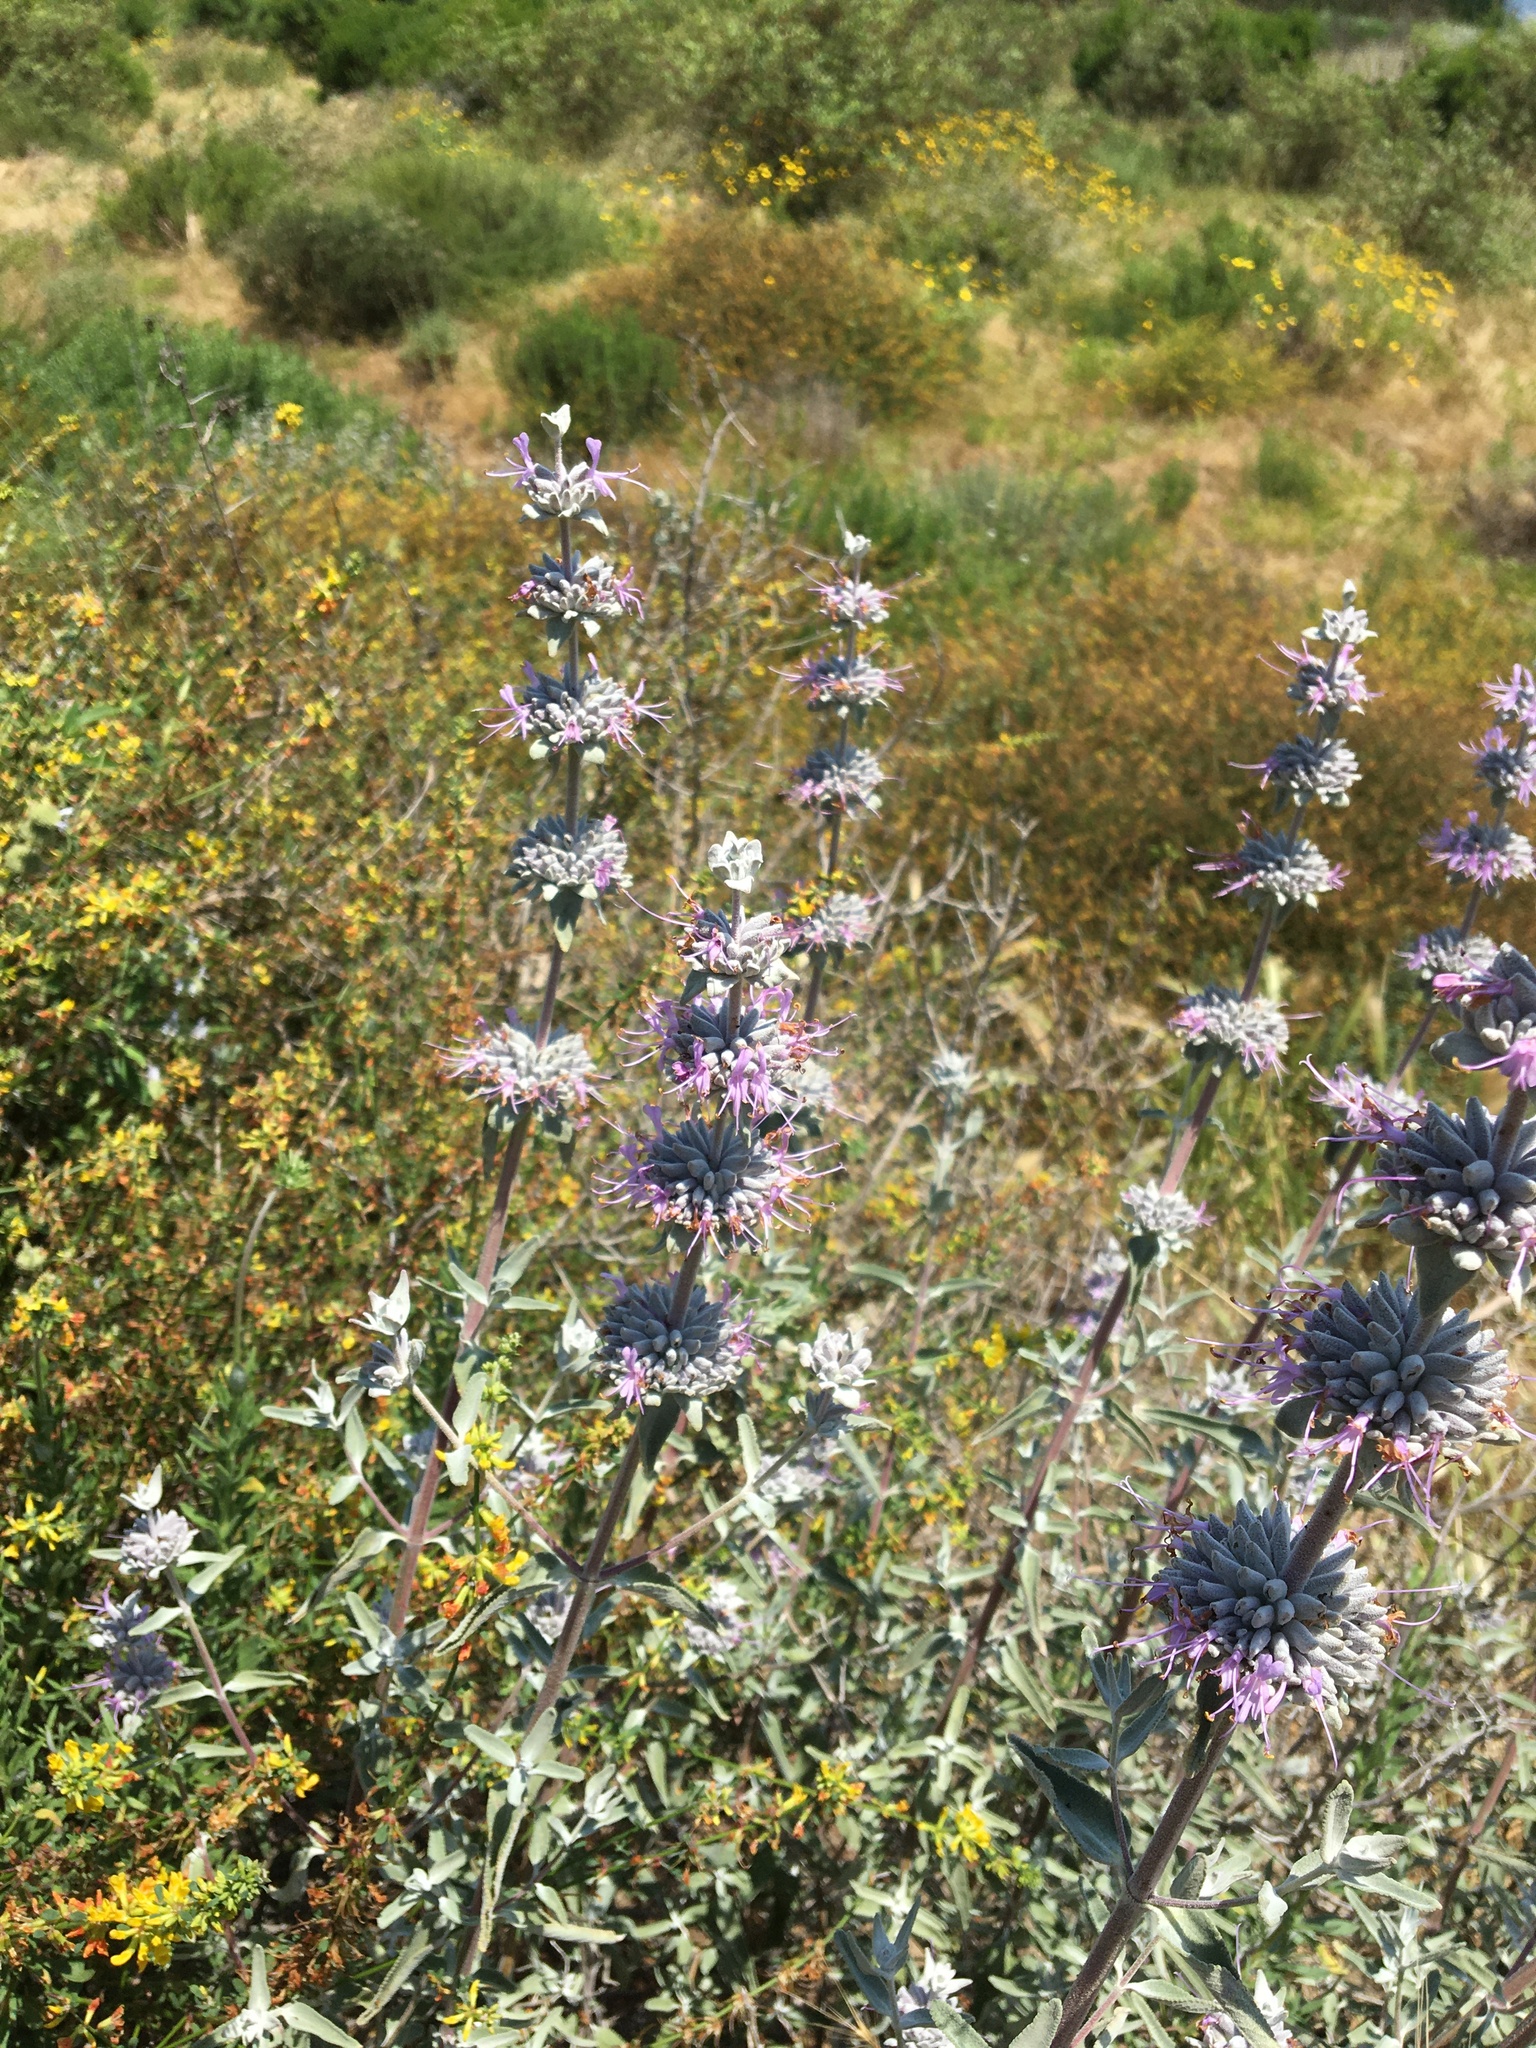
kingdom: Plantae
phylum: Tracheophyta
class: Magnoliopsida
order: Lamiales
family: Lamiaceae
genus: Salvia
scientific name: Salvia leucophylla
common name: Purple sage
